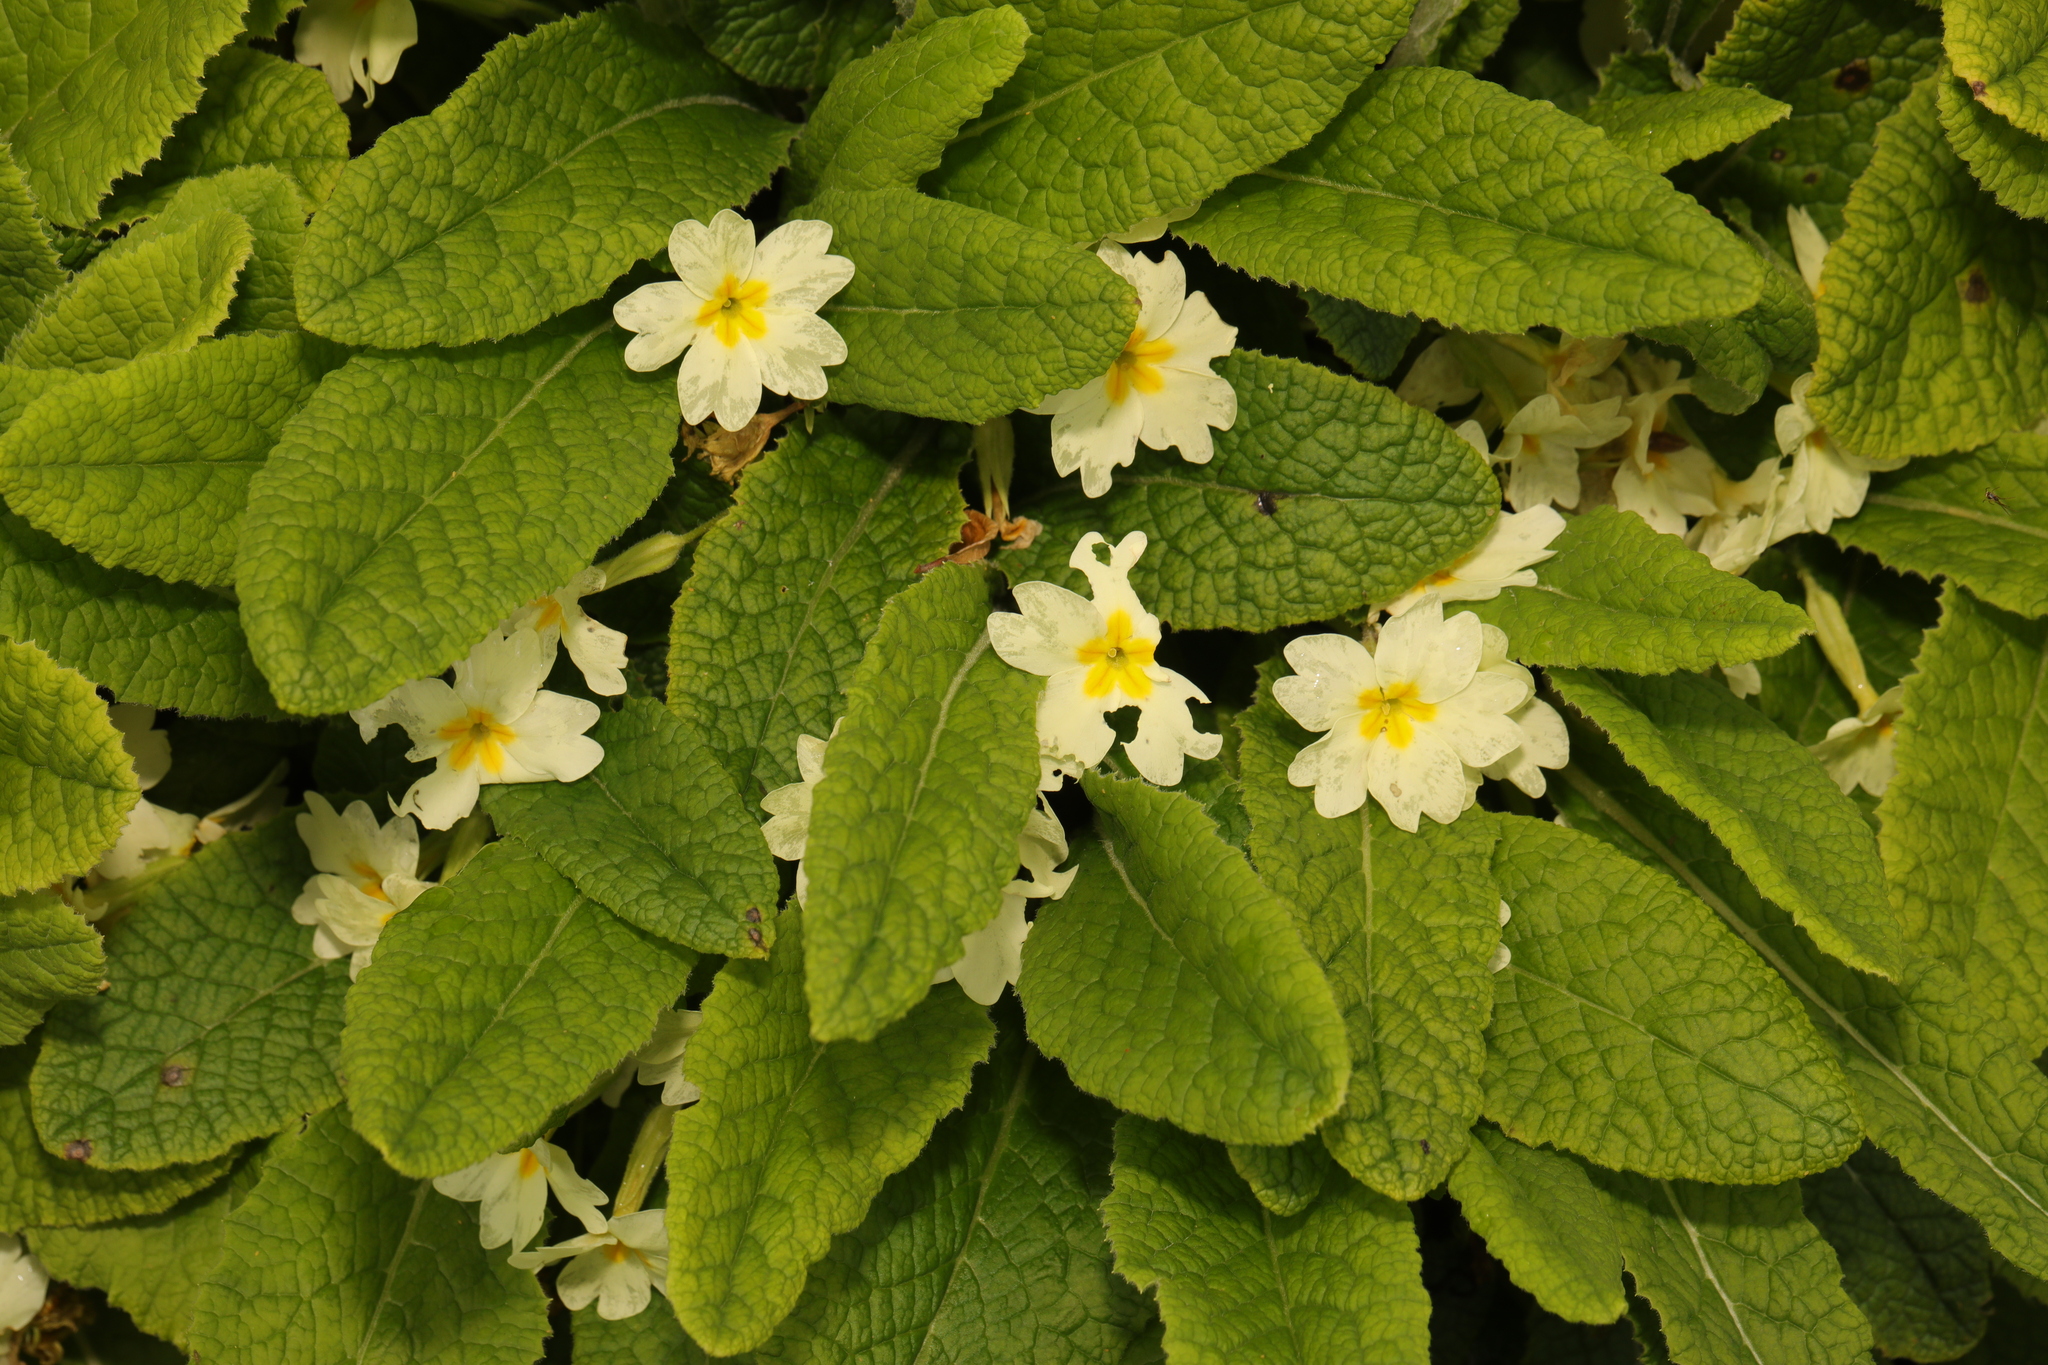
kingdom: Plantae
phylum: Tracheophyta
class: Magnoliopsida
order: Ericales
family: Primulaceae
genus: Primula
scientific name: Primula vulgaris
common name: Primrose
